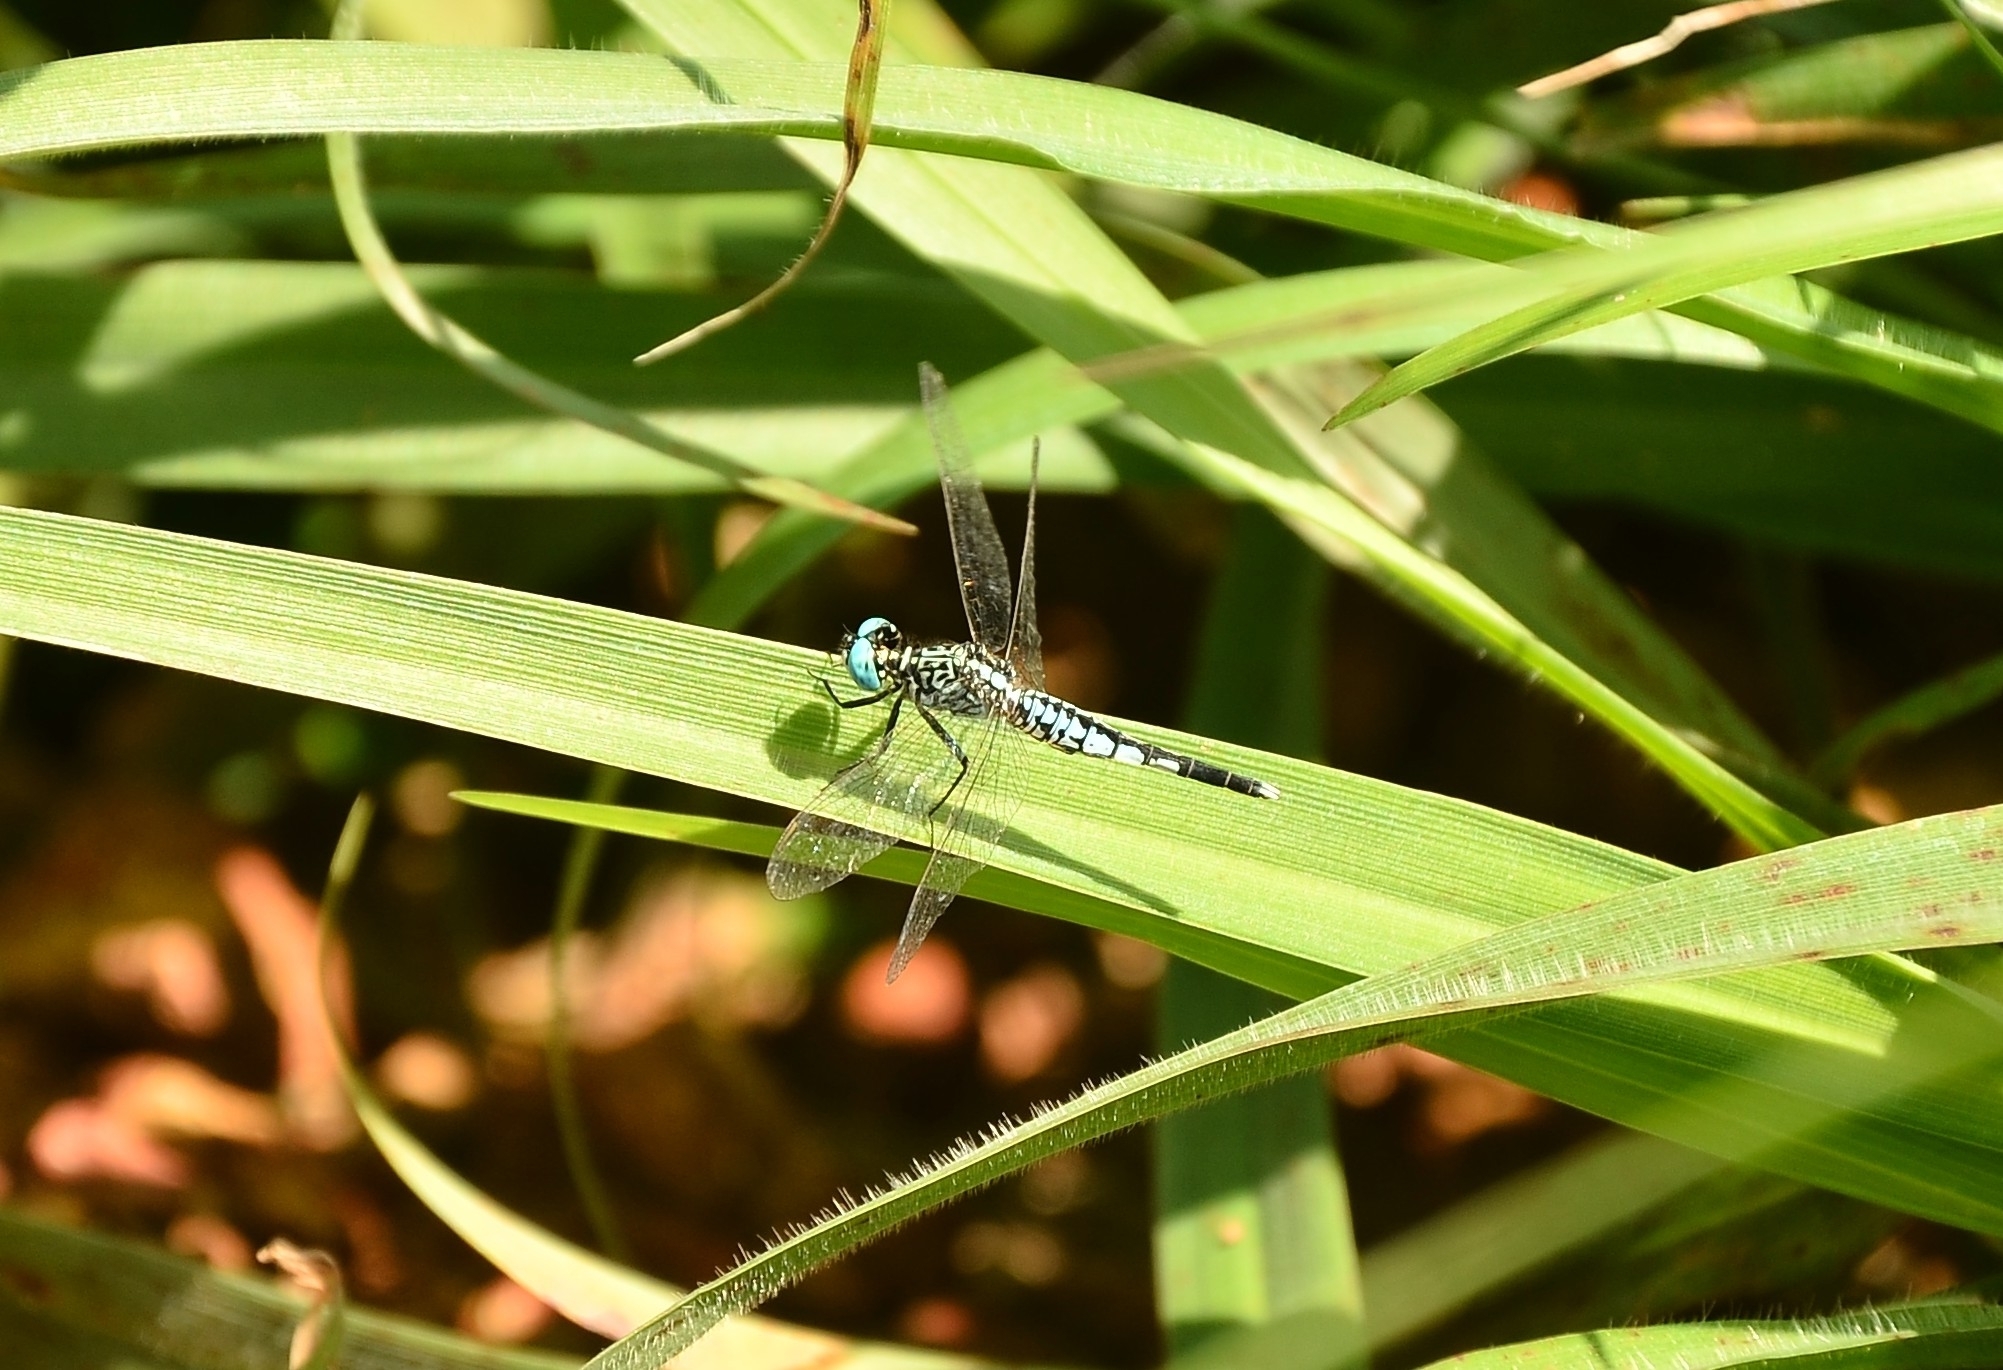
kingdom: Animalia
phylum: Arthropoda
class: Insecta
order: Odonata
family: Libellulidae
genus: Acisoma
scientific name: Acisoma panorpoides
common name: Asian pintail
